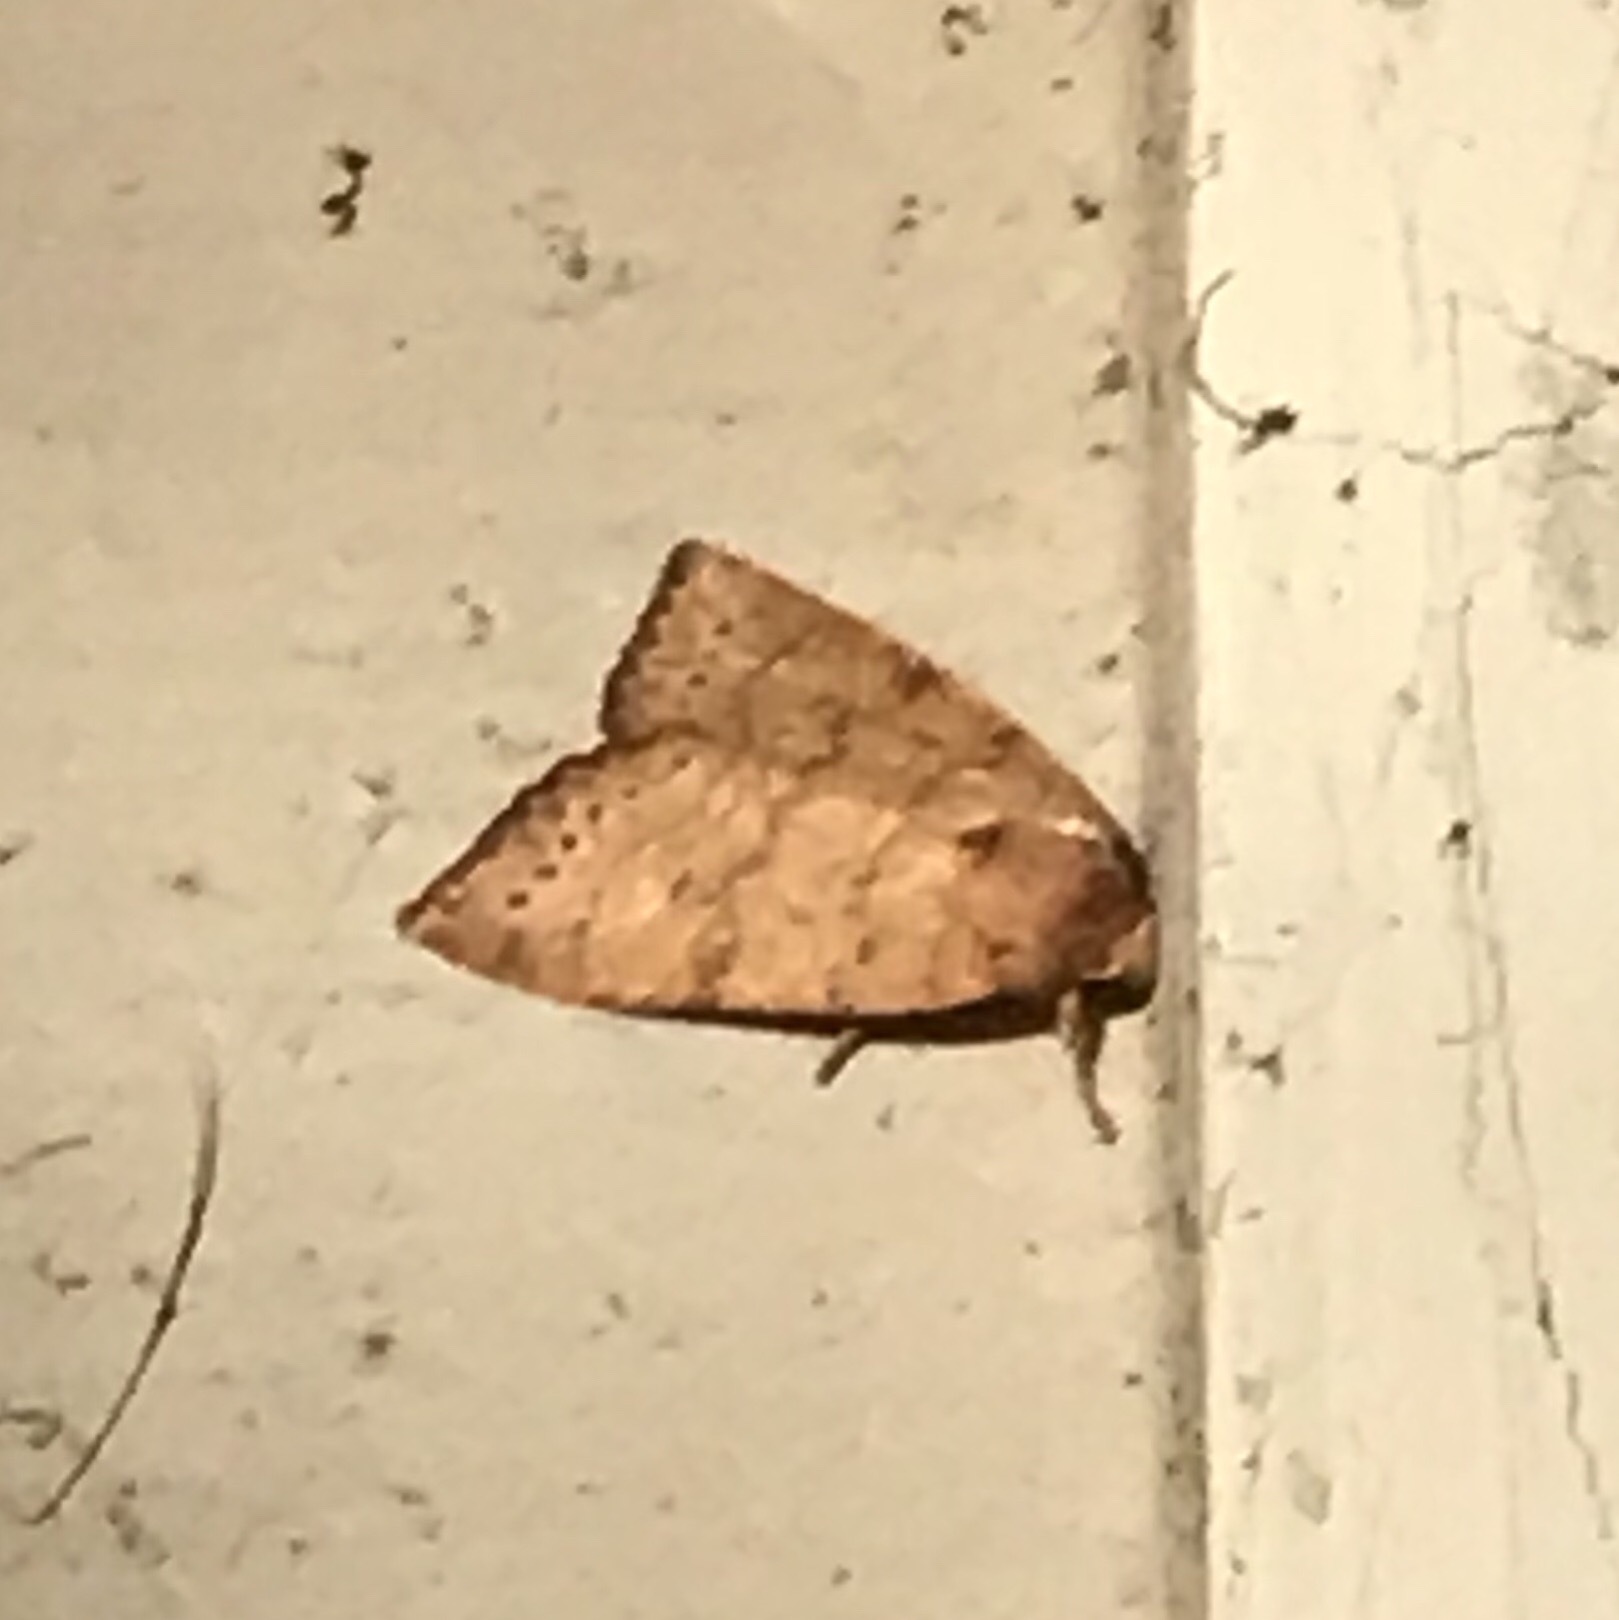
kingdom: Animalia
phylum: Arthropoda
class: Insecta
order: Lepidoptera
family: Noctuidae
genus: Anathix
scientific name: Anathix ralla
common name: Dotted sallow
